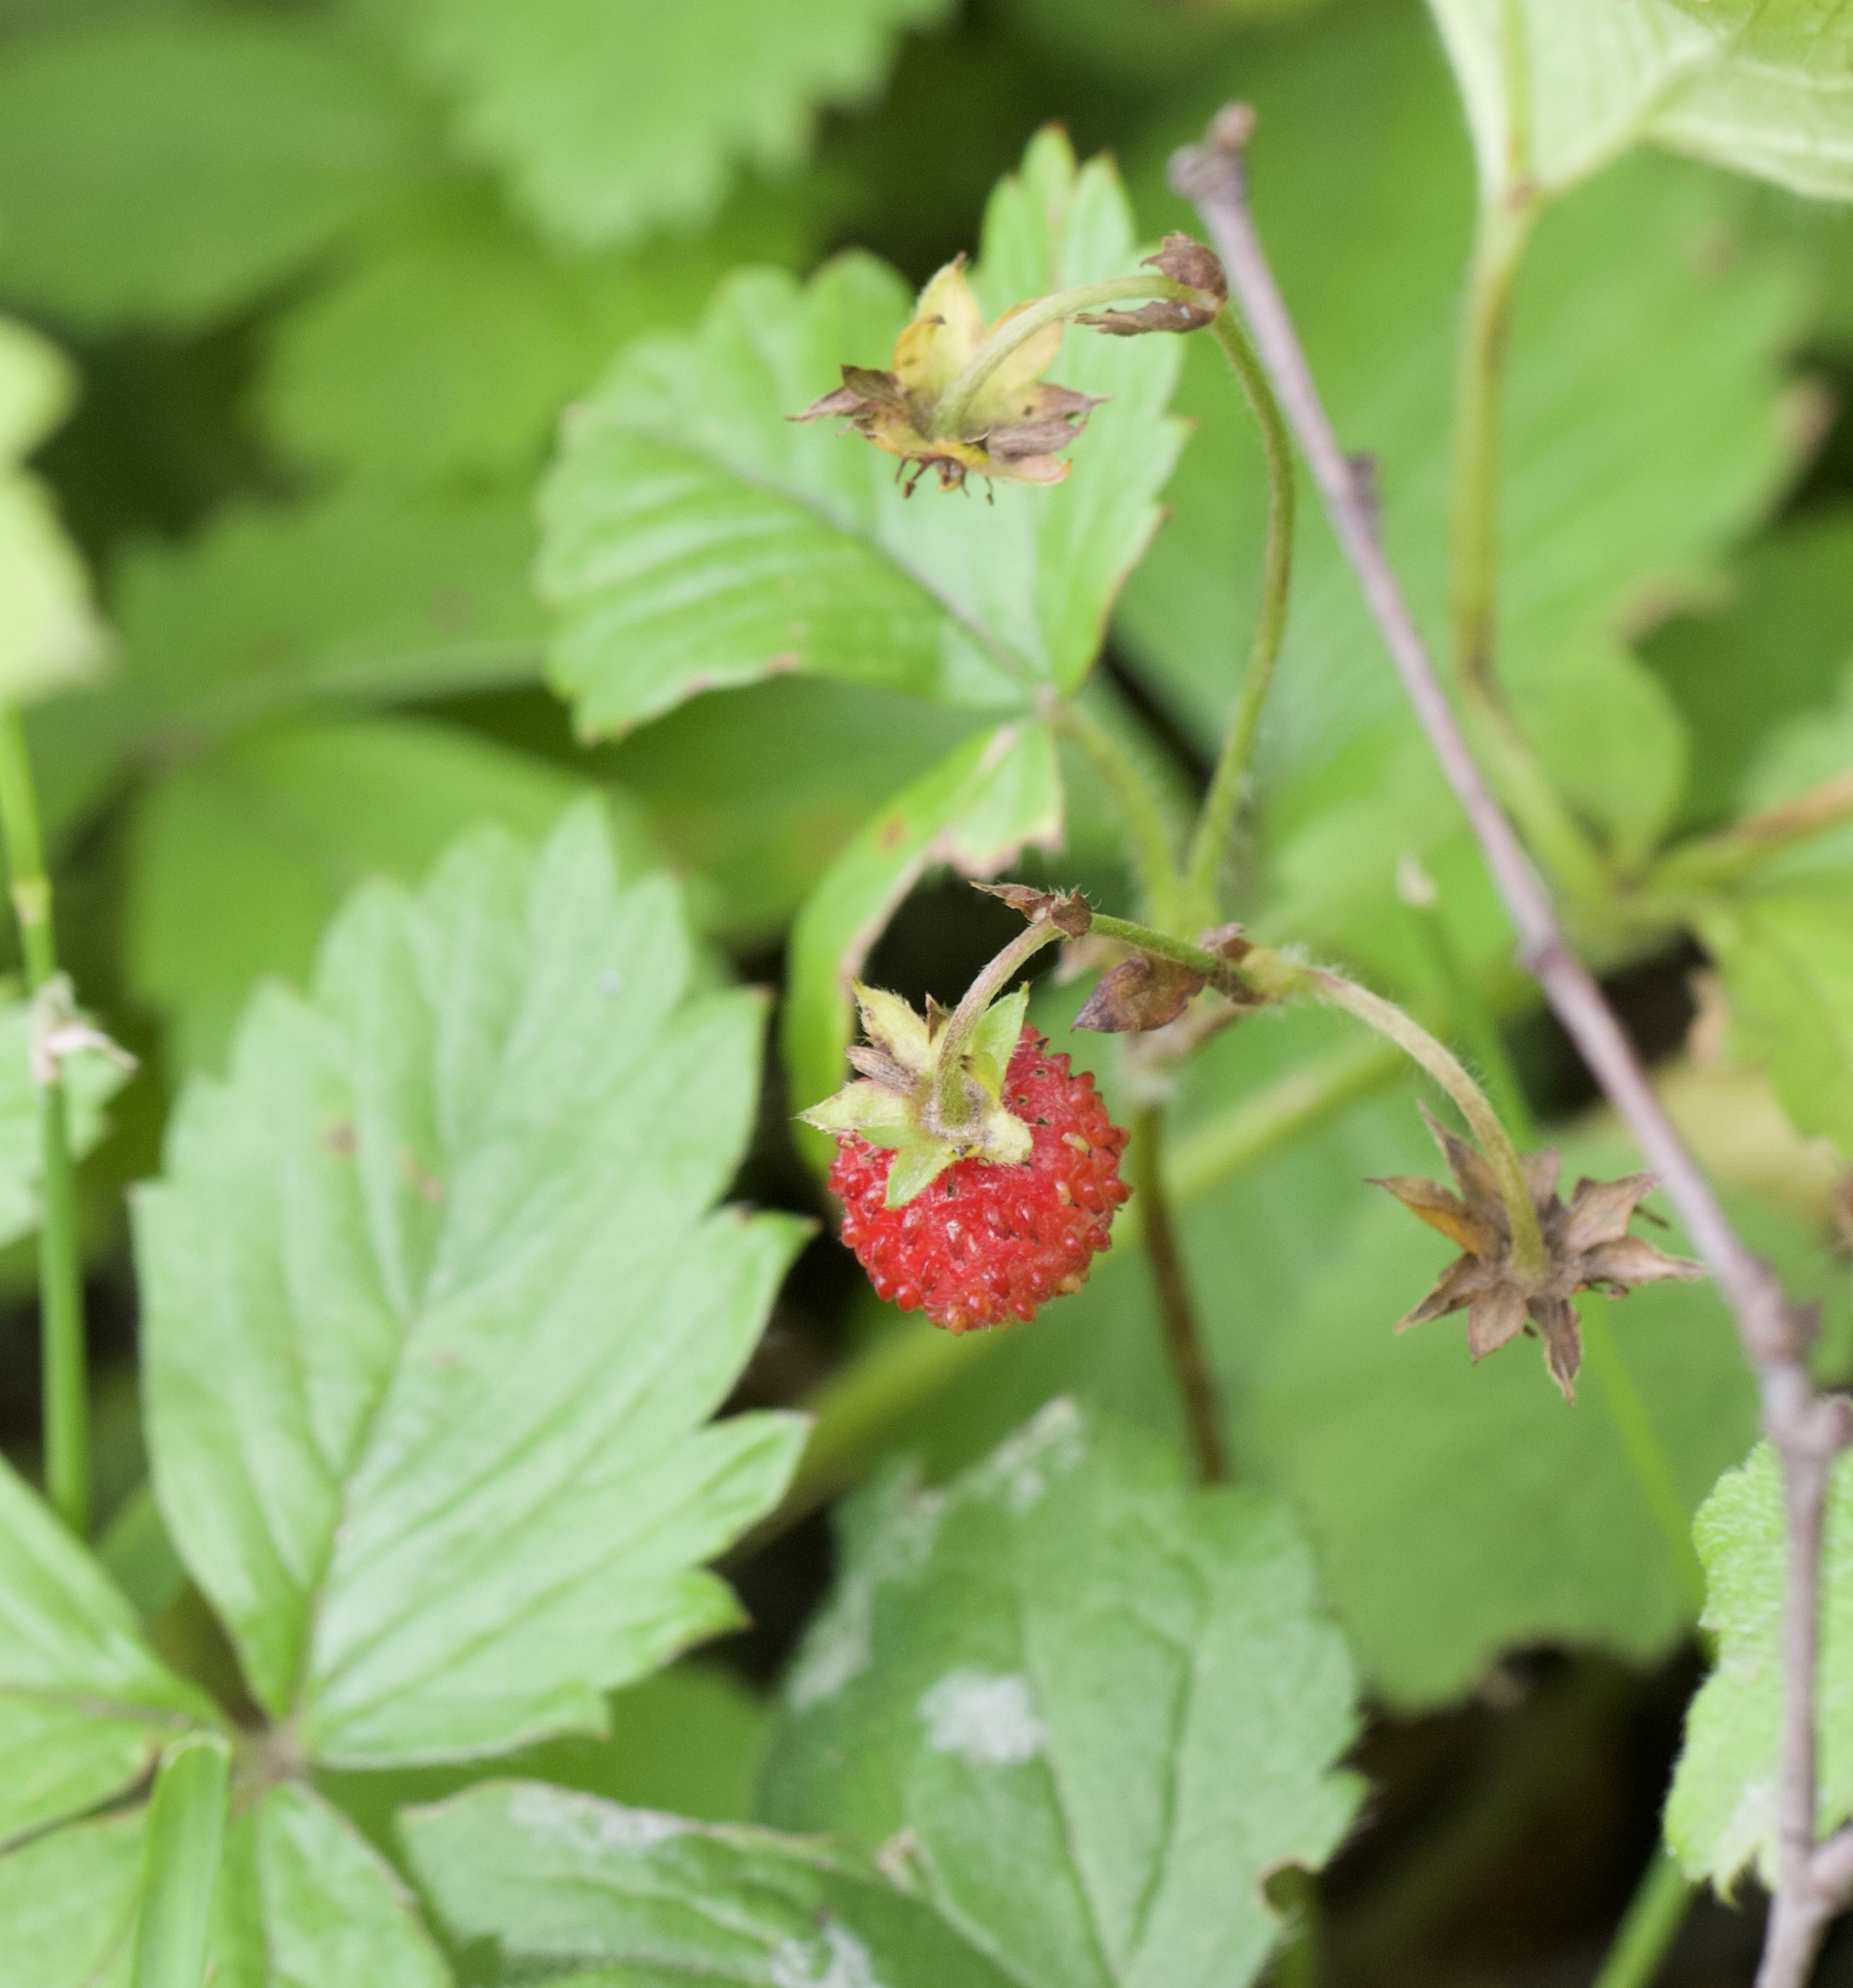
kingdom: Plantae
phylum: Tracheophyta
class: Magnoliopsida
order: Rosales
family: Rosaceae
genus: Fragaria
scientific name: Fragaria vesca
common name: Wild strawberry
